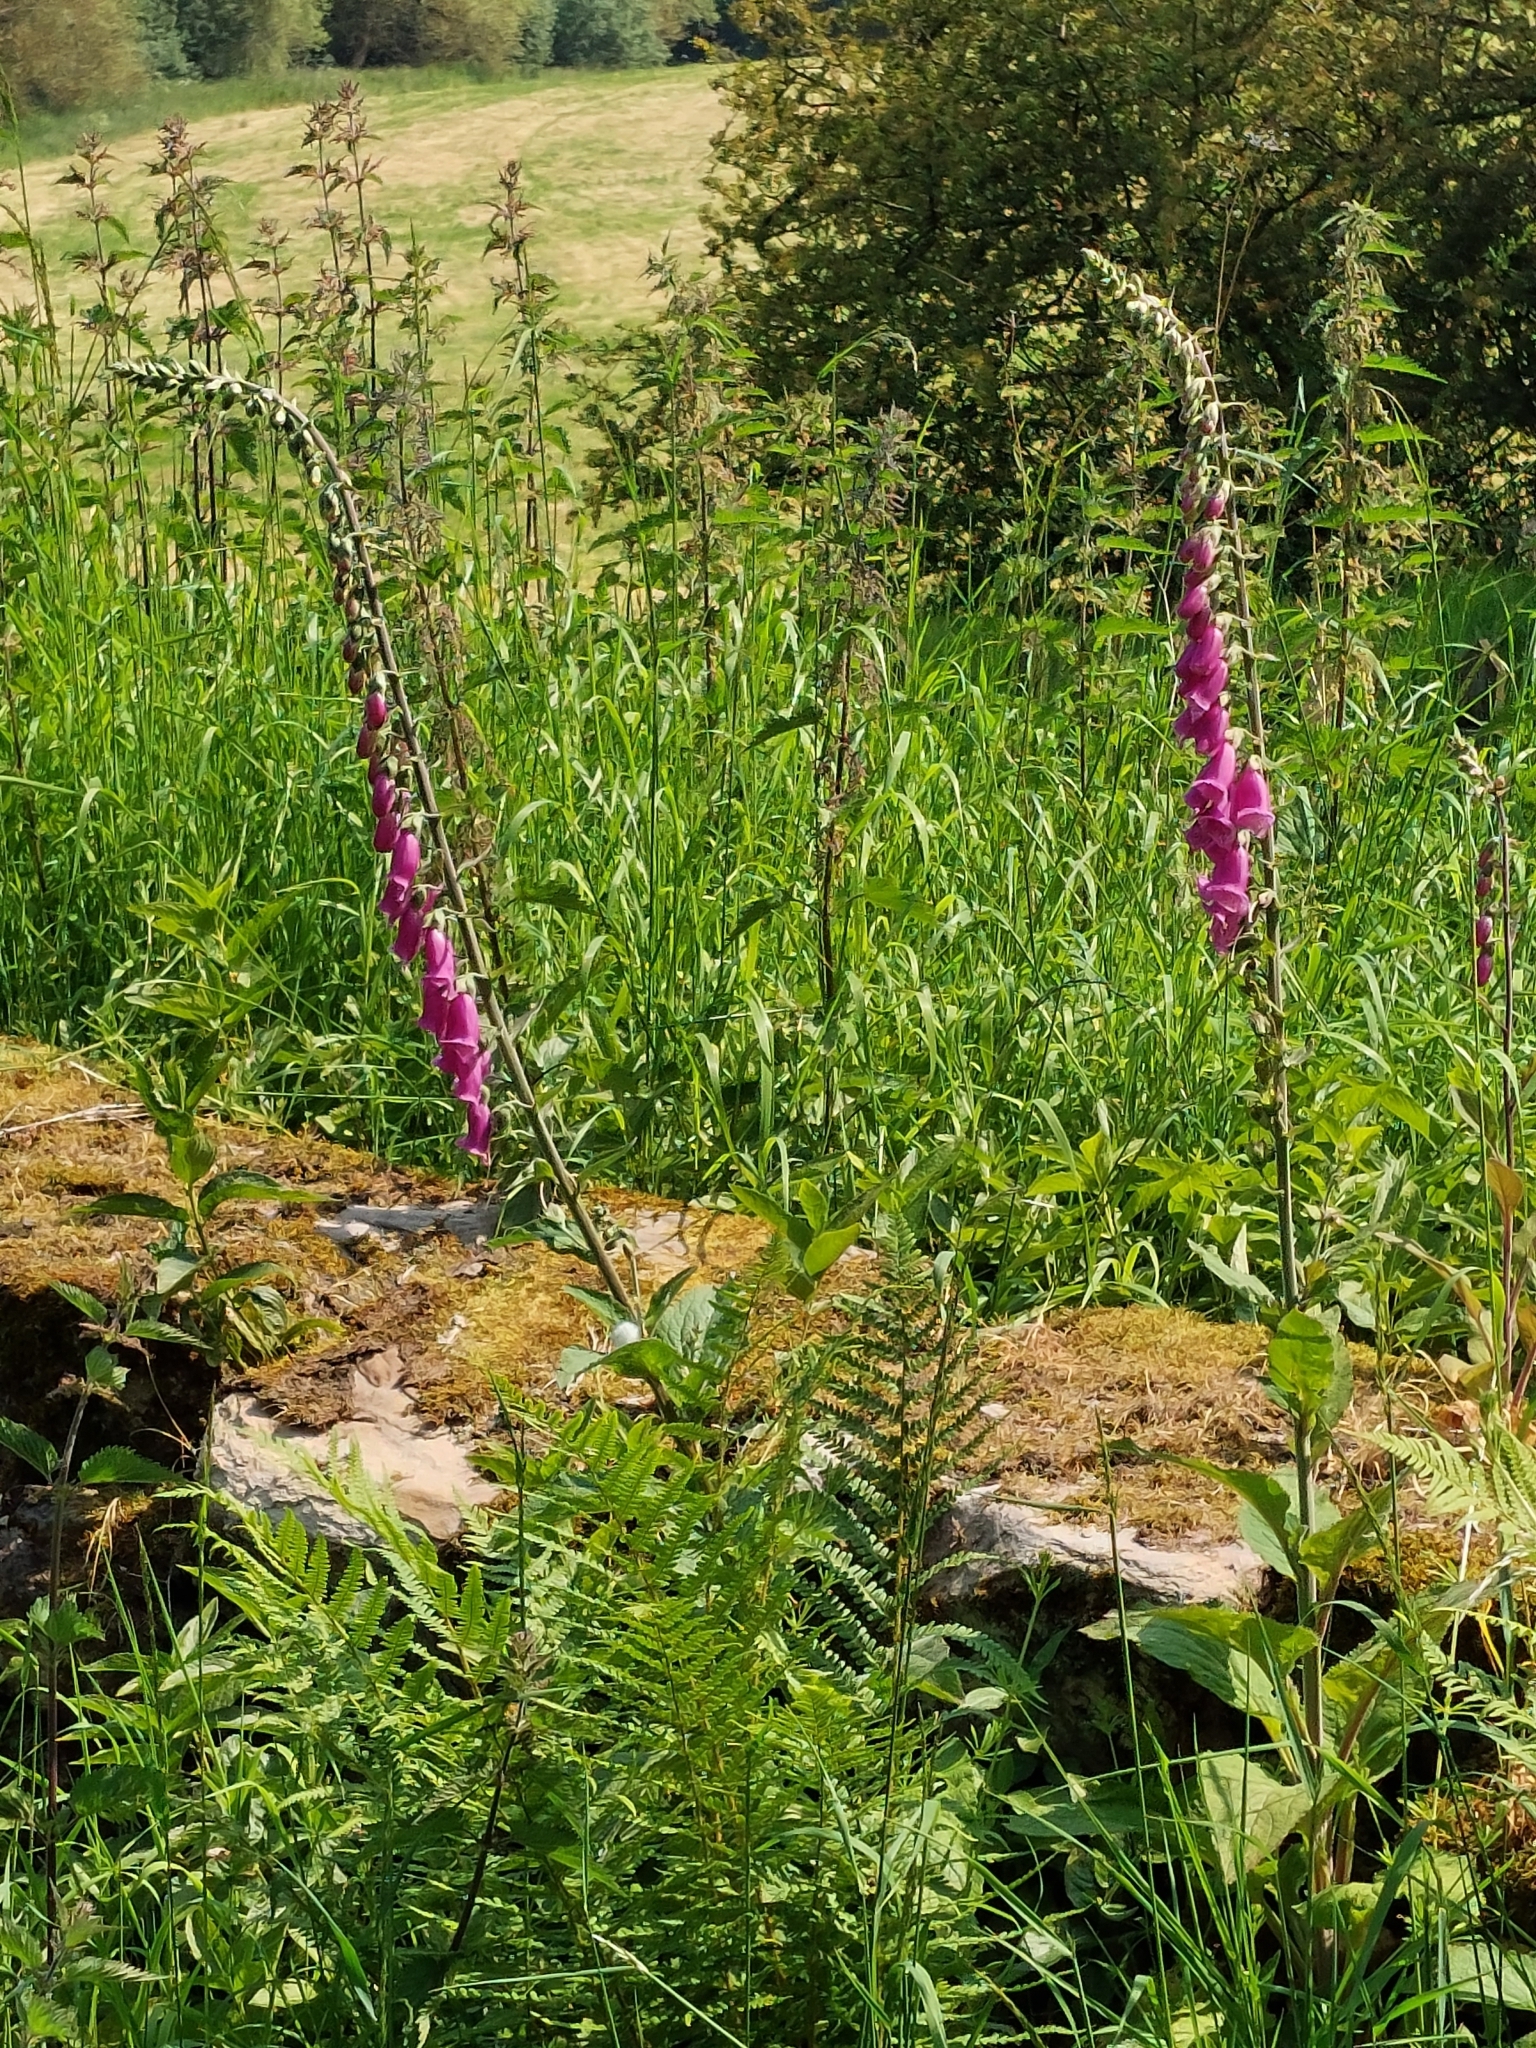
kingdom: Plantae
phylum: Tracheophyta
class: Magnoliopsida
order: Lamiales
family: Plantaginaceae
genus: Digitalis
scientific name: Digitalis purpurea
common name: Foxglove
